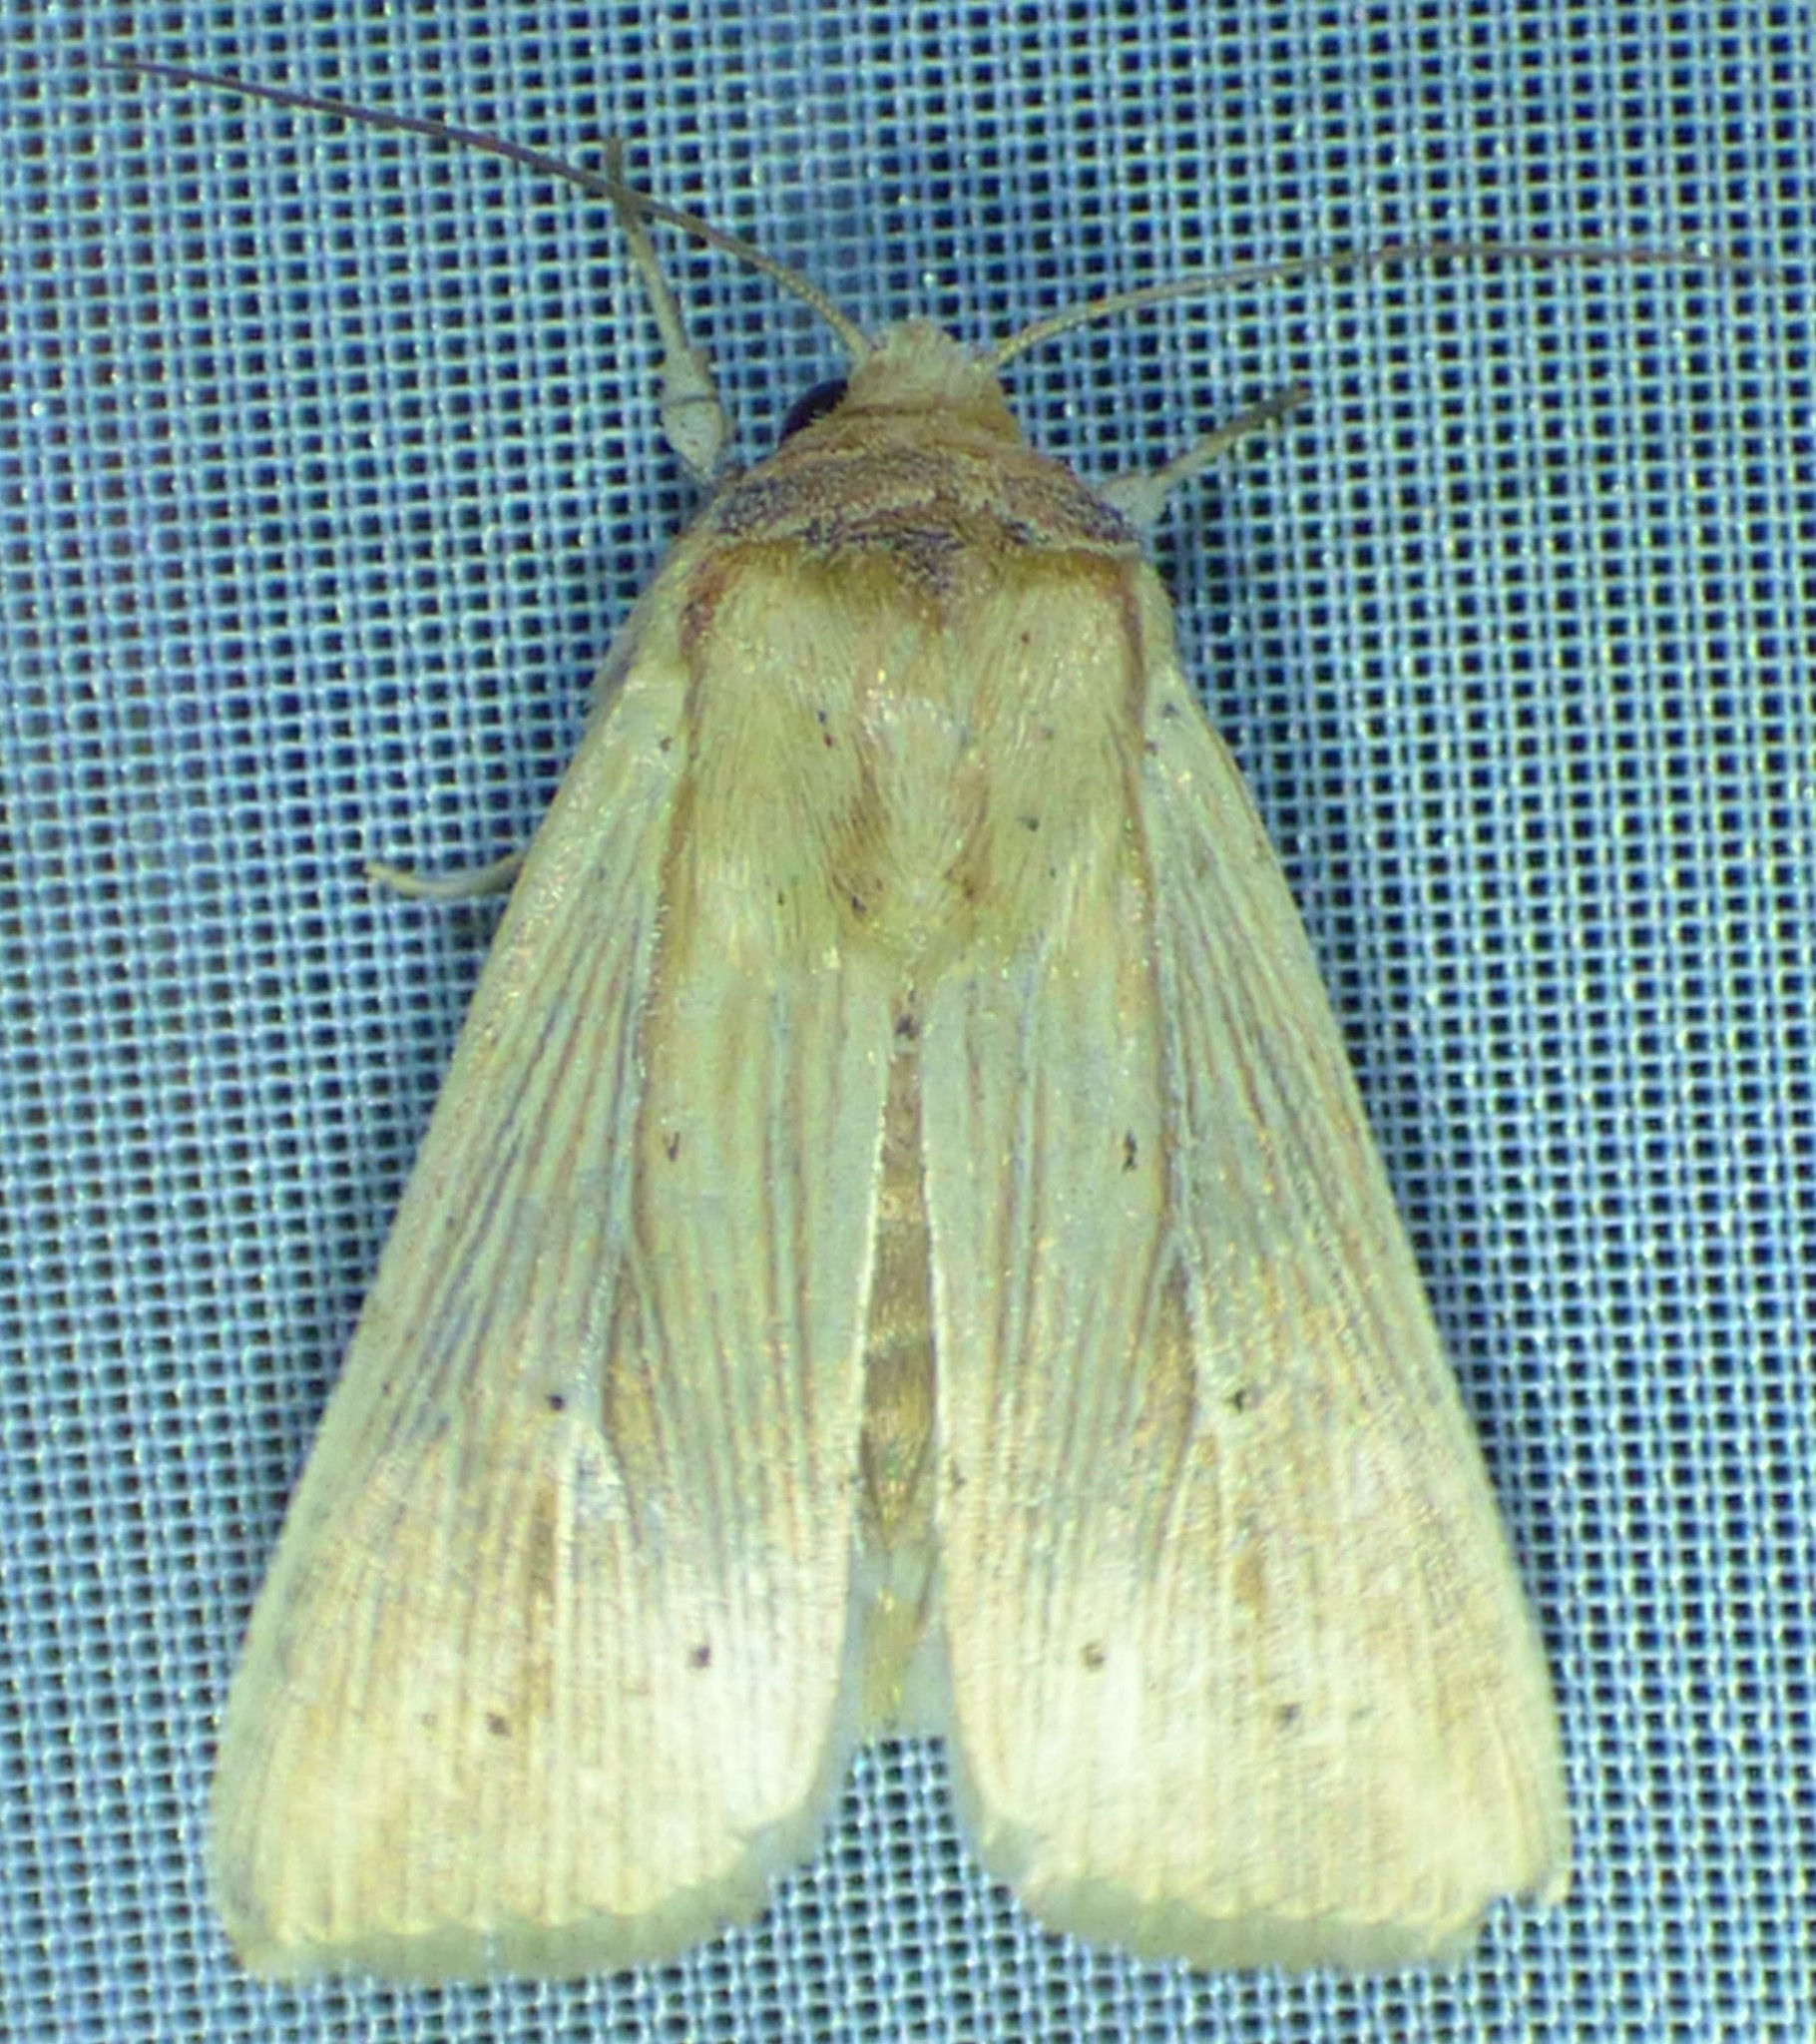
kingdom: Animalia
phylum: Arthropoda
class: Insecta
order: Lepidoptera
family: Noctuidae
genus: Leucania
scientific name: Leucania adjuta
